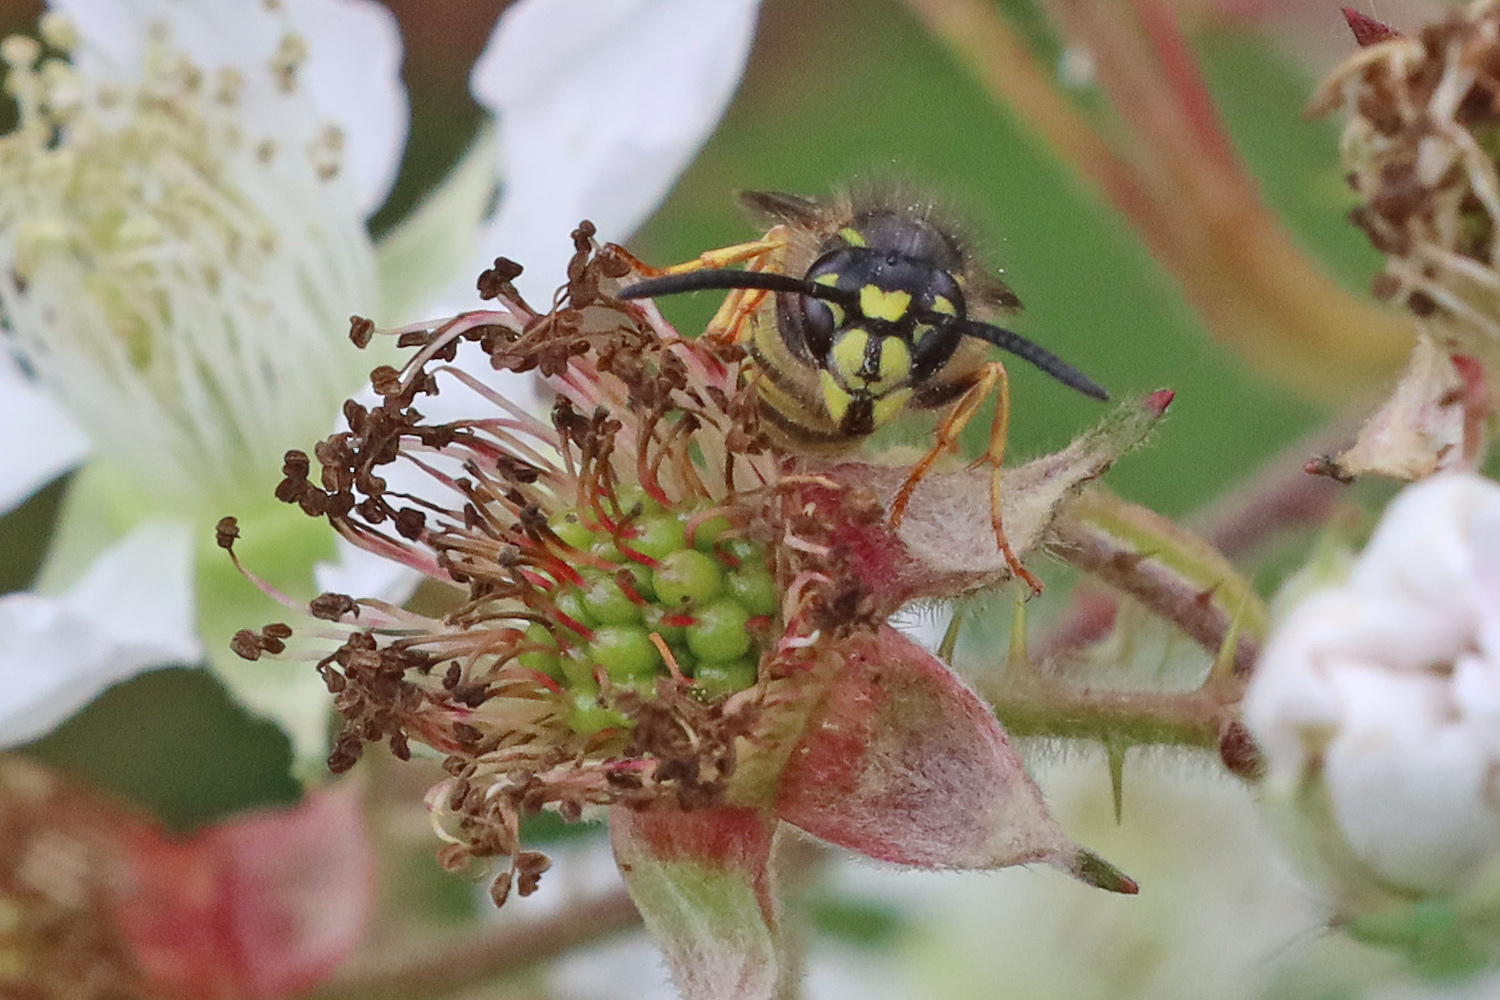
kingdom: Animalia
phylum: Arthropoda
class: Insecta
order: Hymenoptera
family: Vespidae
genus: Vespula
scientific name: Vespula vulgaris
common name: Common wasp
